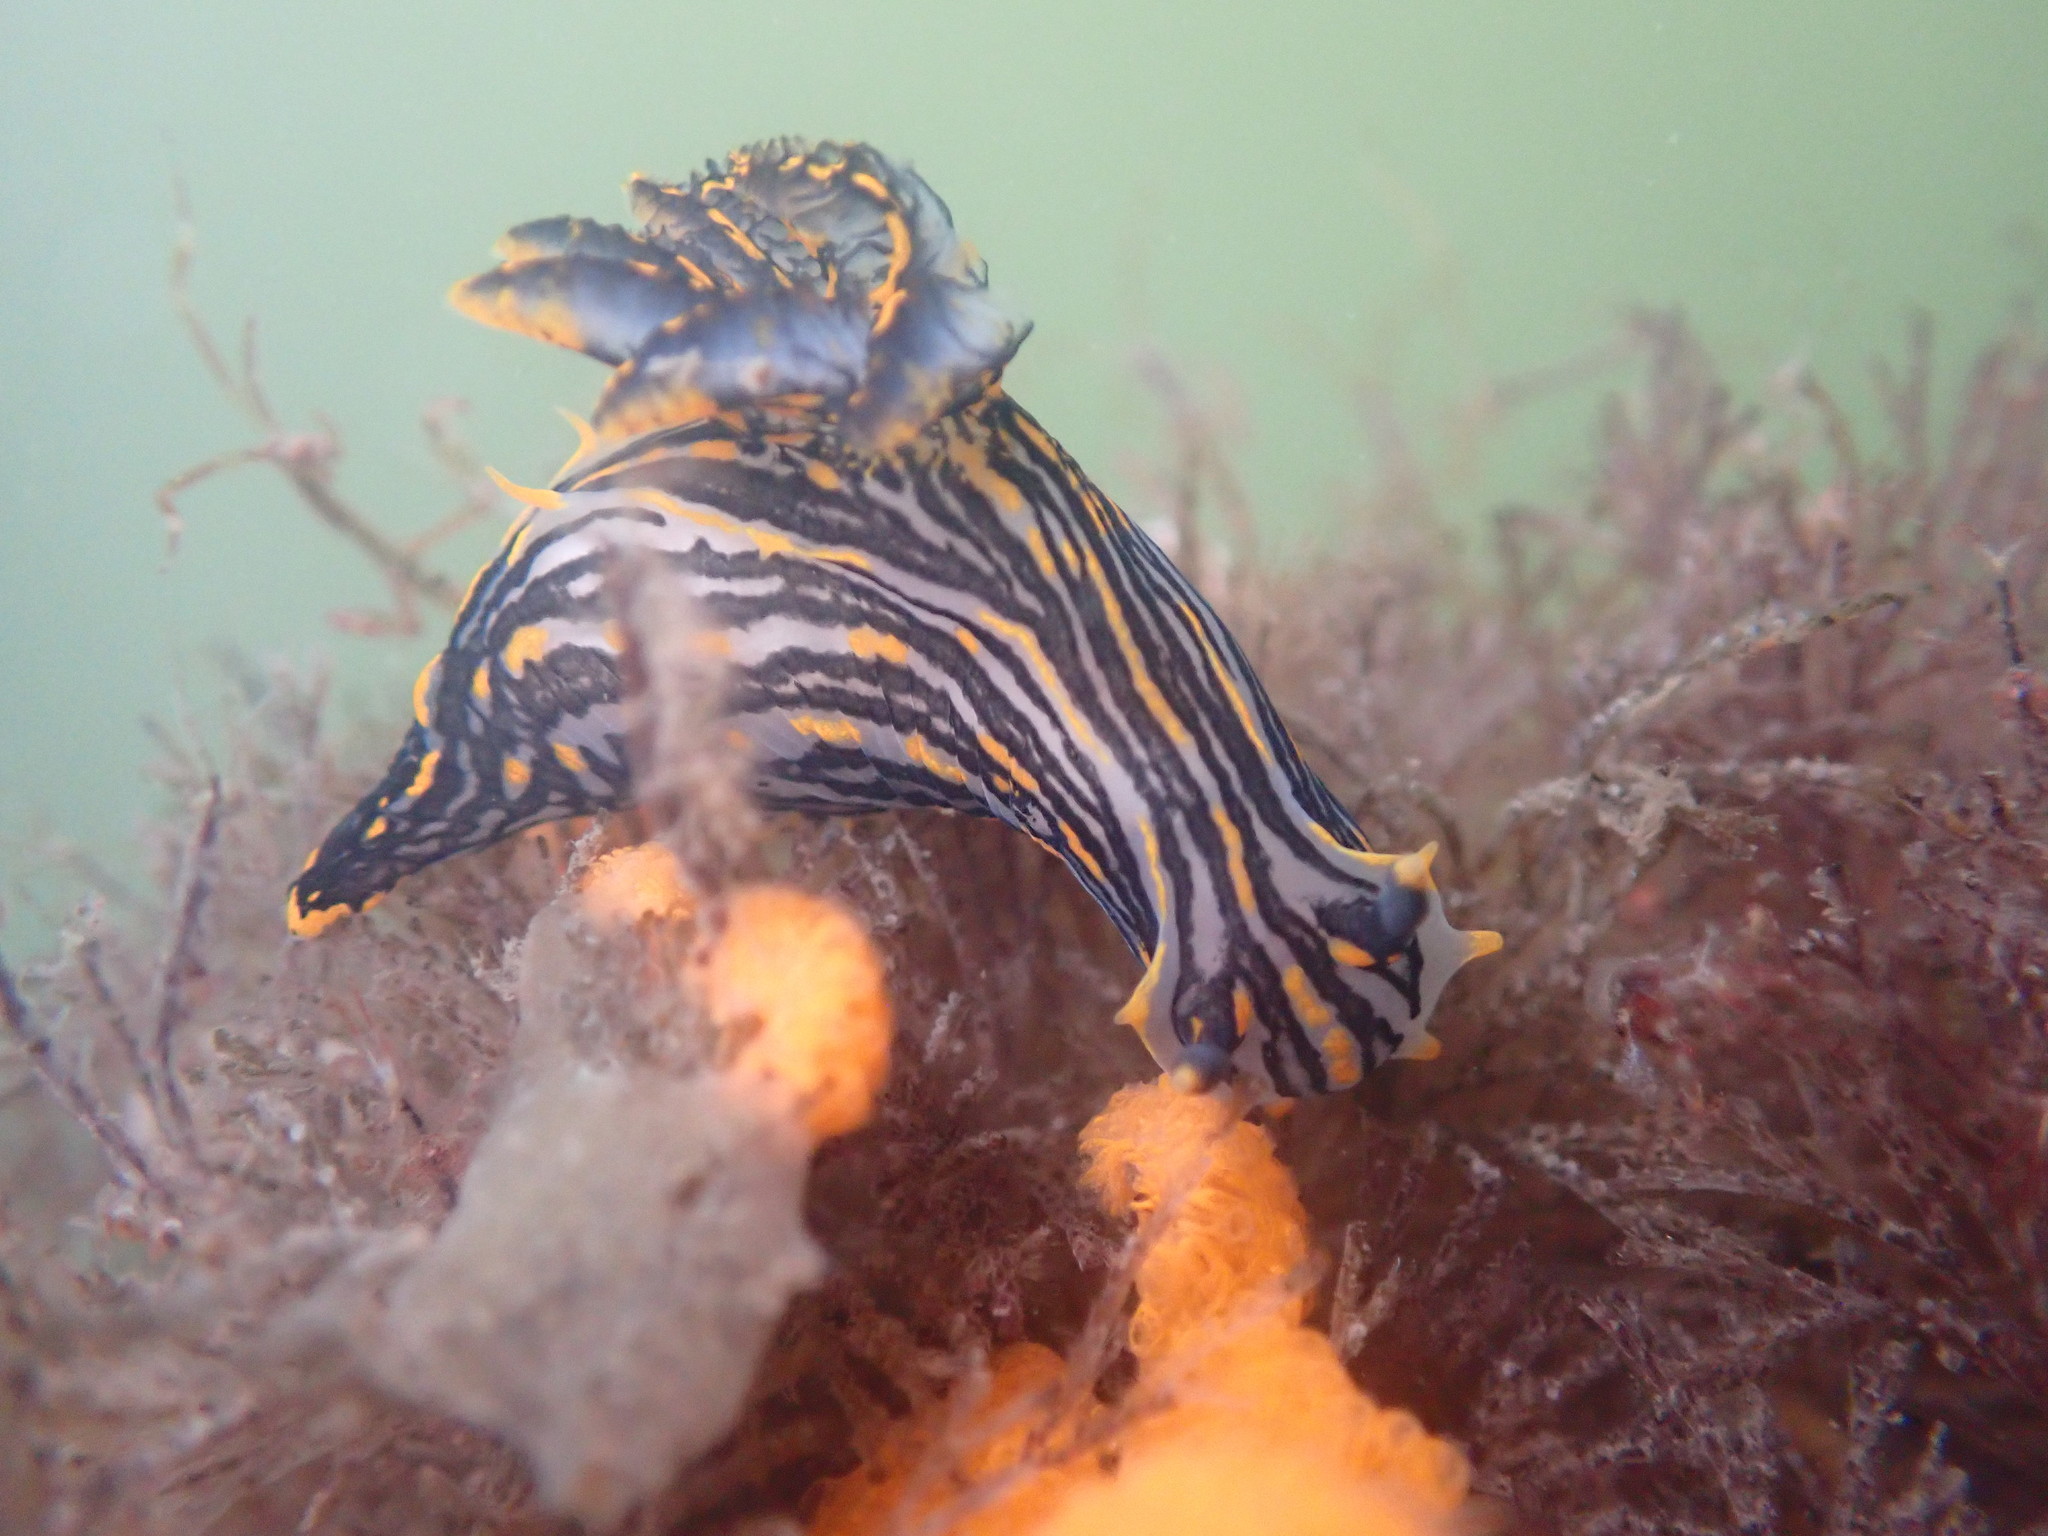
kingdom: Animalia
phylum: Mollusca
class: Gastropoda
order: Nudibranchia
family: Polyceridae
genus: Polycera
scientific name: Polycera atra
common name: Orange-spike polycera
